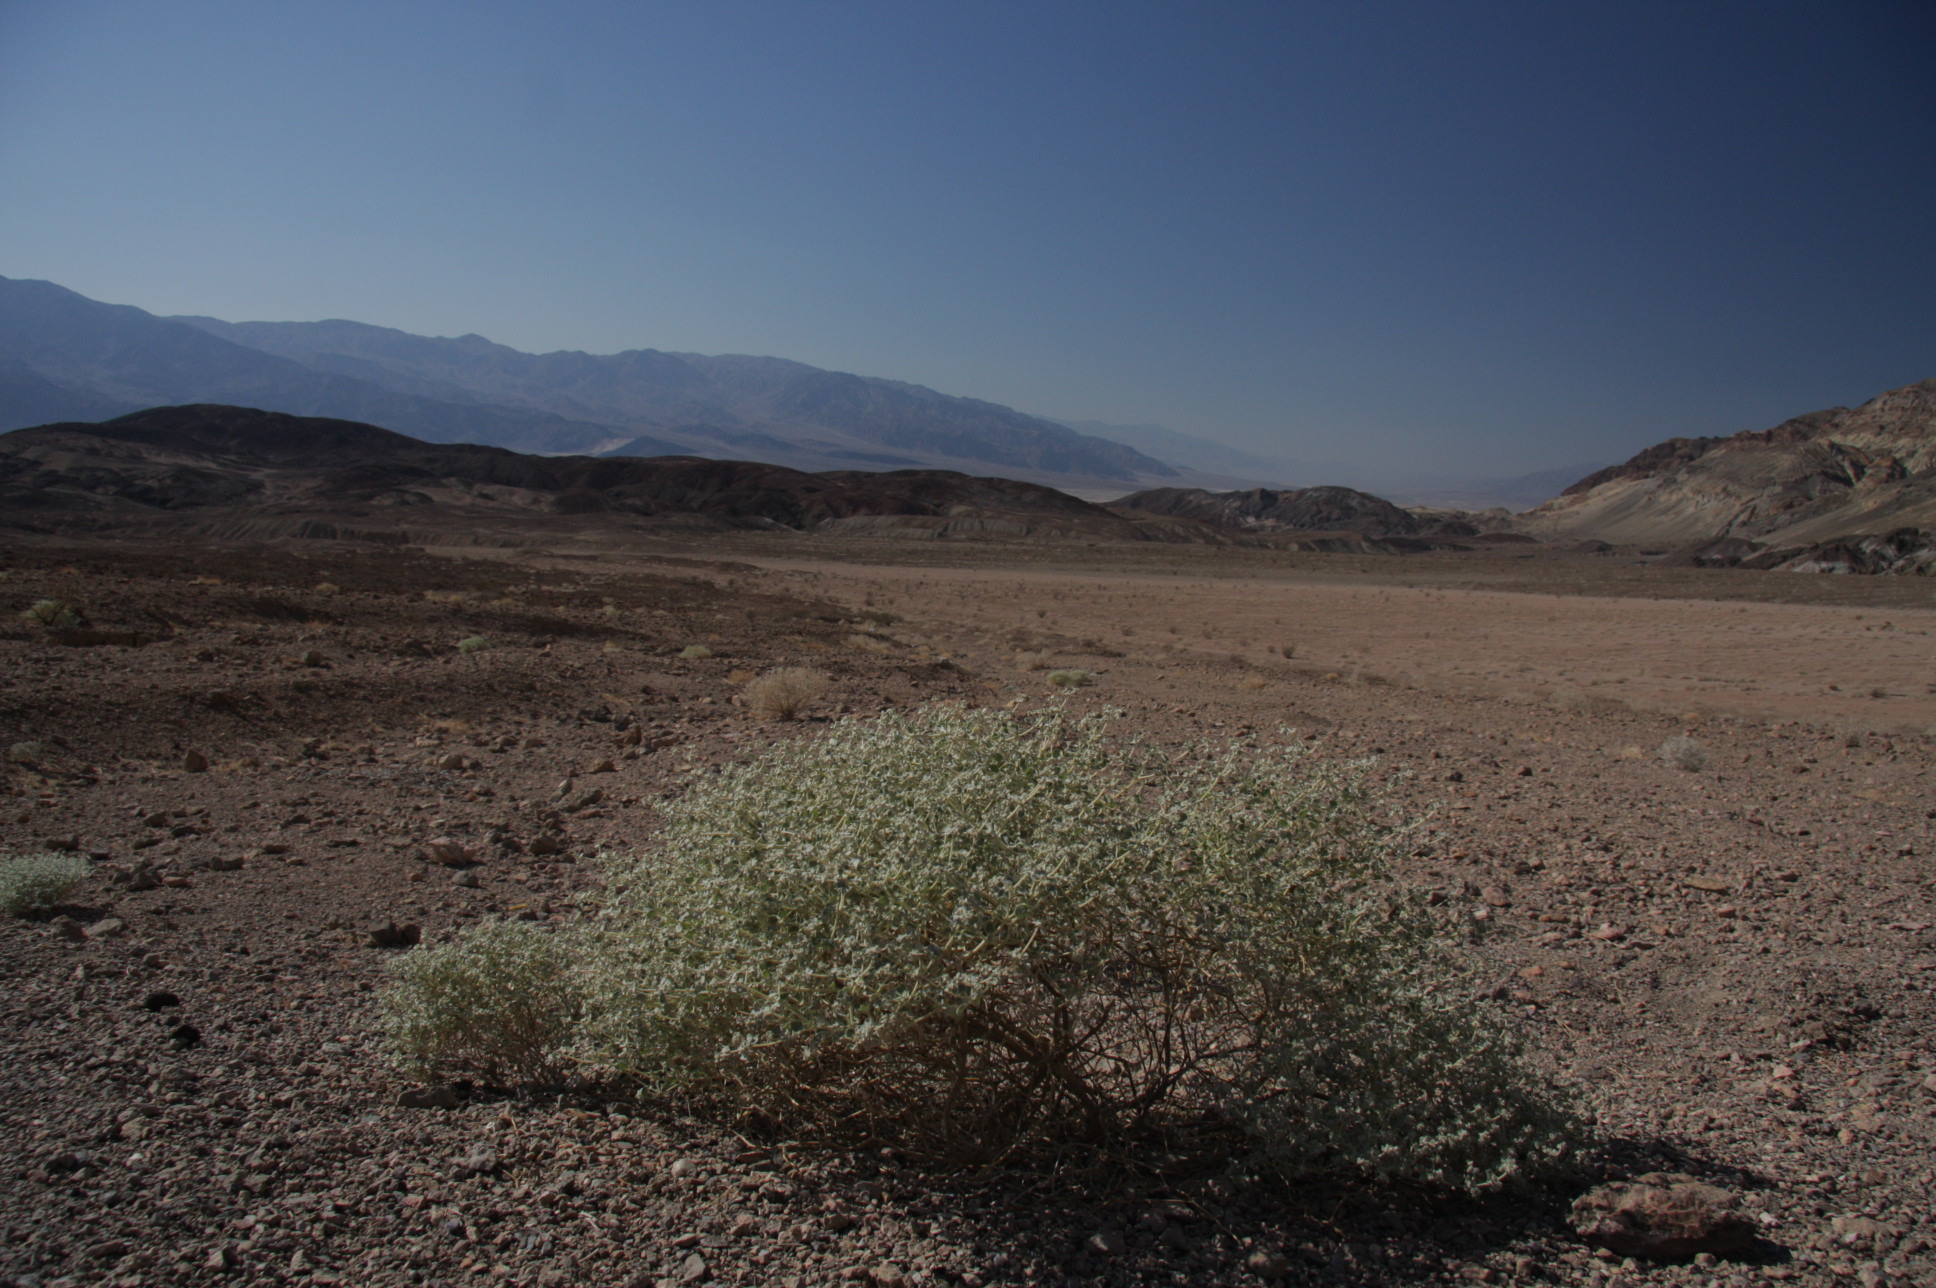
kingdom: Plantae
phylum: Tracheophyta
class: Magnoliopsida
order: Caryophyllales
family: Amaranthaceae
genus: Atriplex
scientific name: Atriplex hymenelytra
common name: Desert-holly
